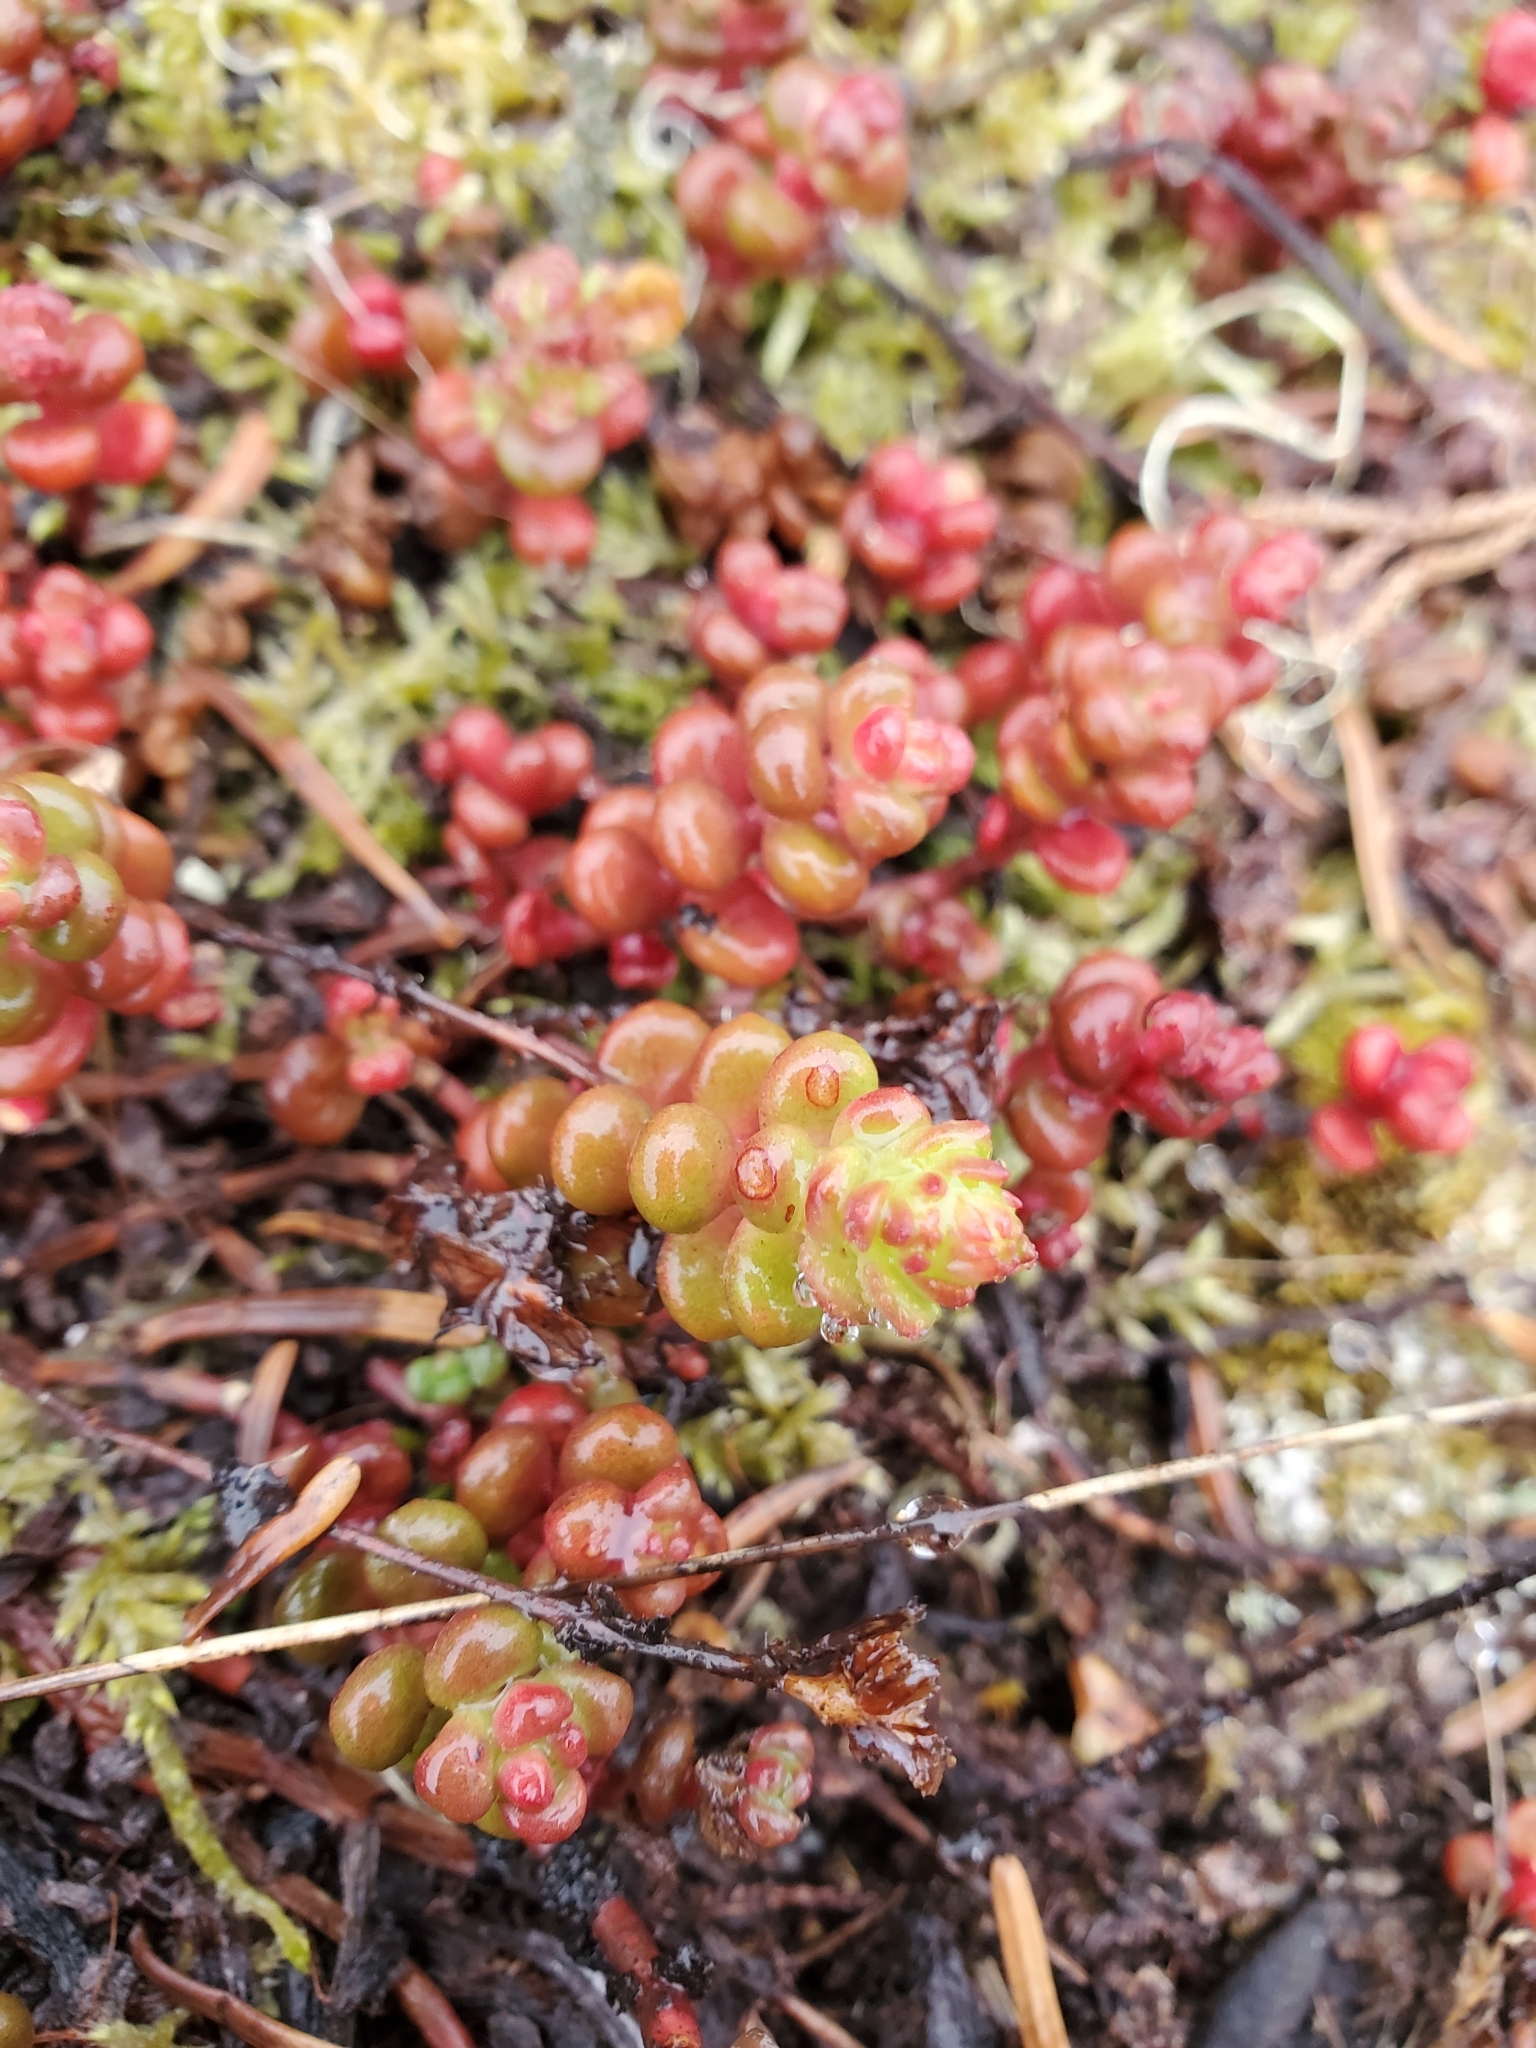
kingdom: Plantae
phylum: Tracheophyta
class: Magnoliopsida
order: Saxifragales
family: Crassulaceae
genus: Sedum
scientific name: Sedum divergens
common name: Cascade stonecrop
